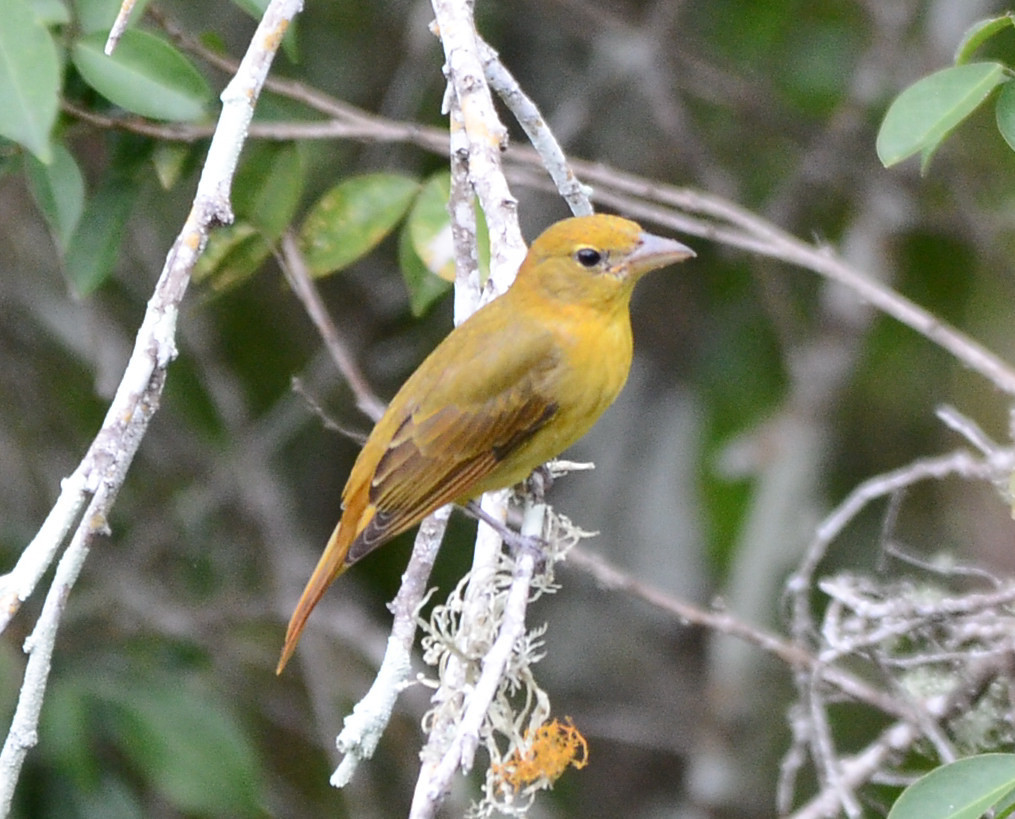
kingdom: Animalia
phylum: Chordata
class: Aves
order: Passeriformes
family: Cardinalidae
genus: Piranga
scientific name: Piranga rubra
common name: Summer tanager
